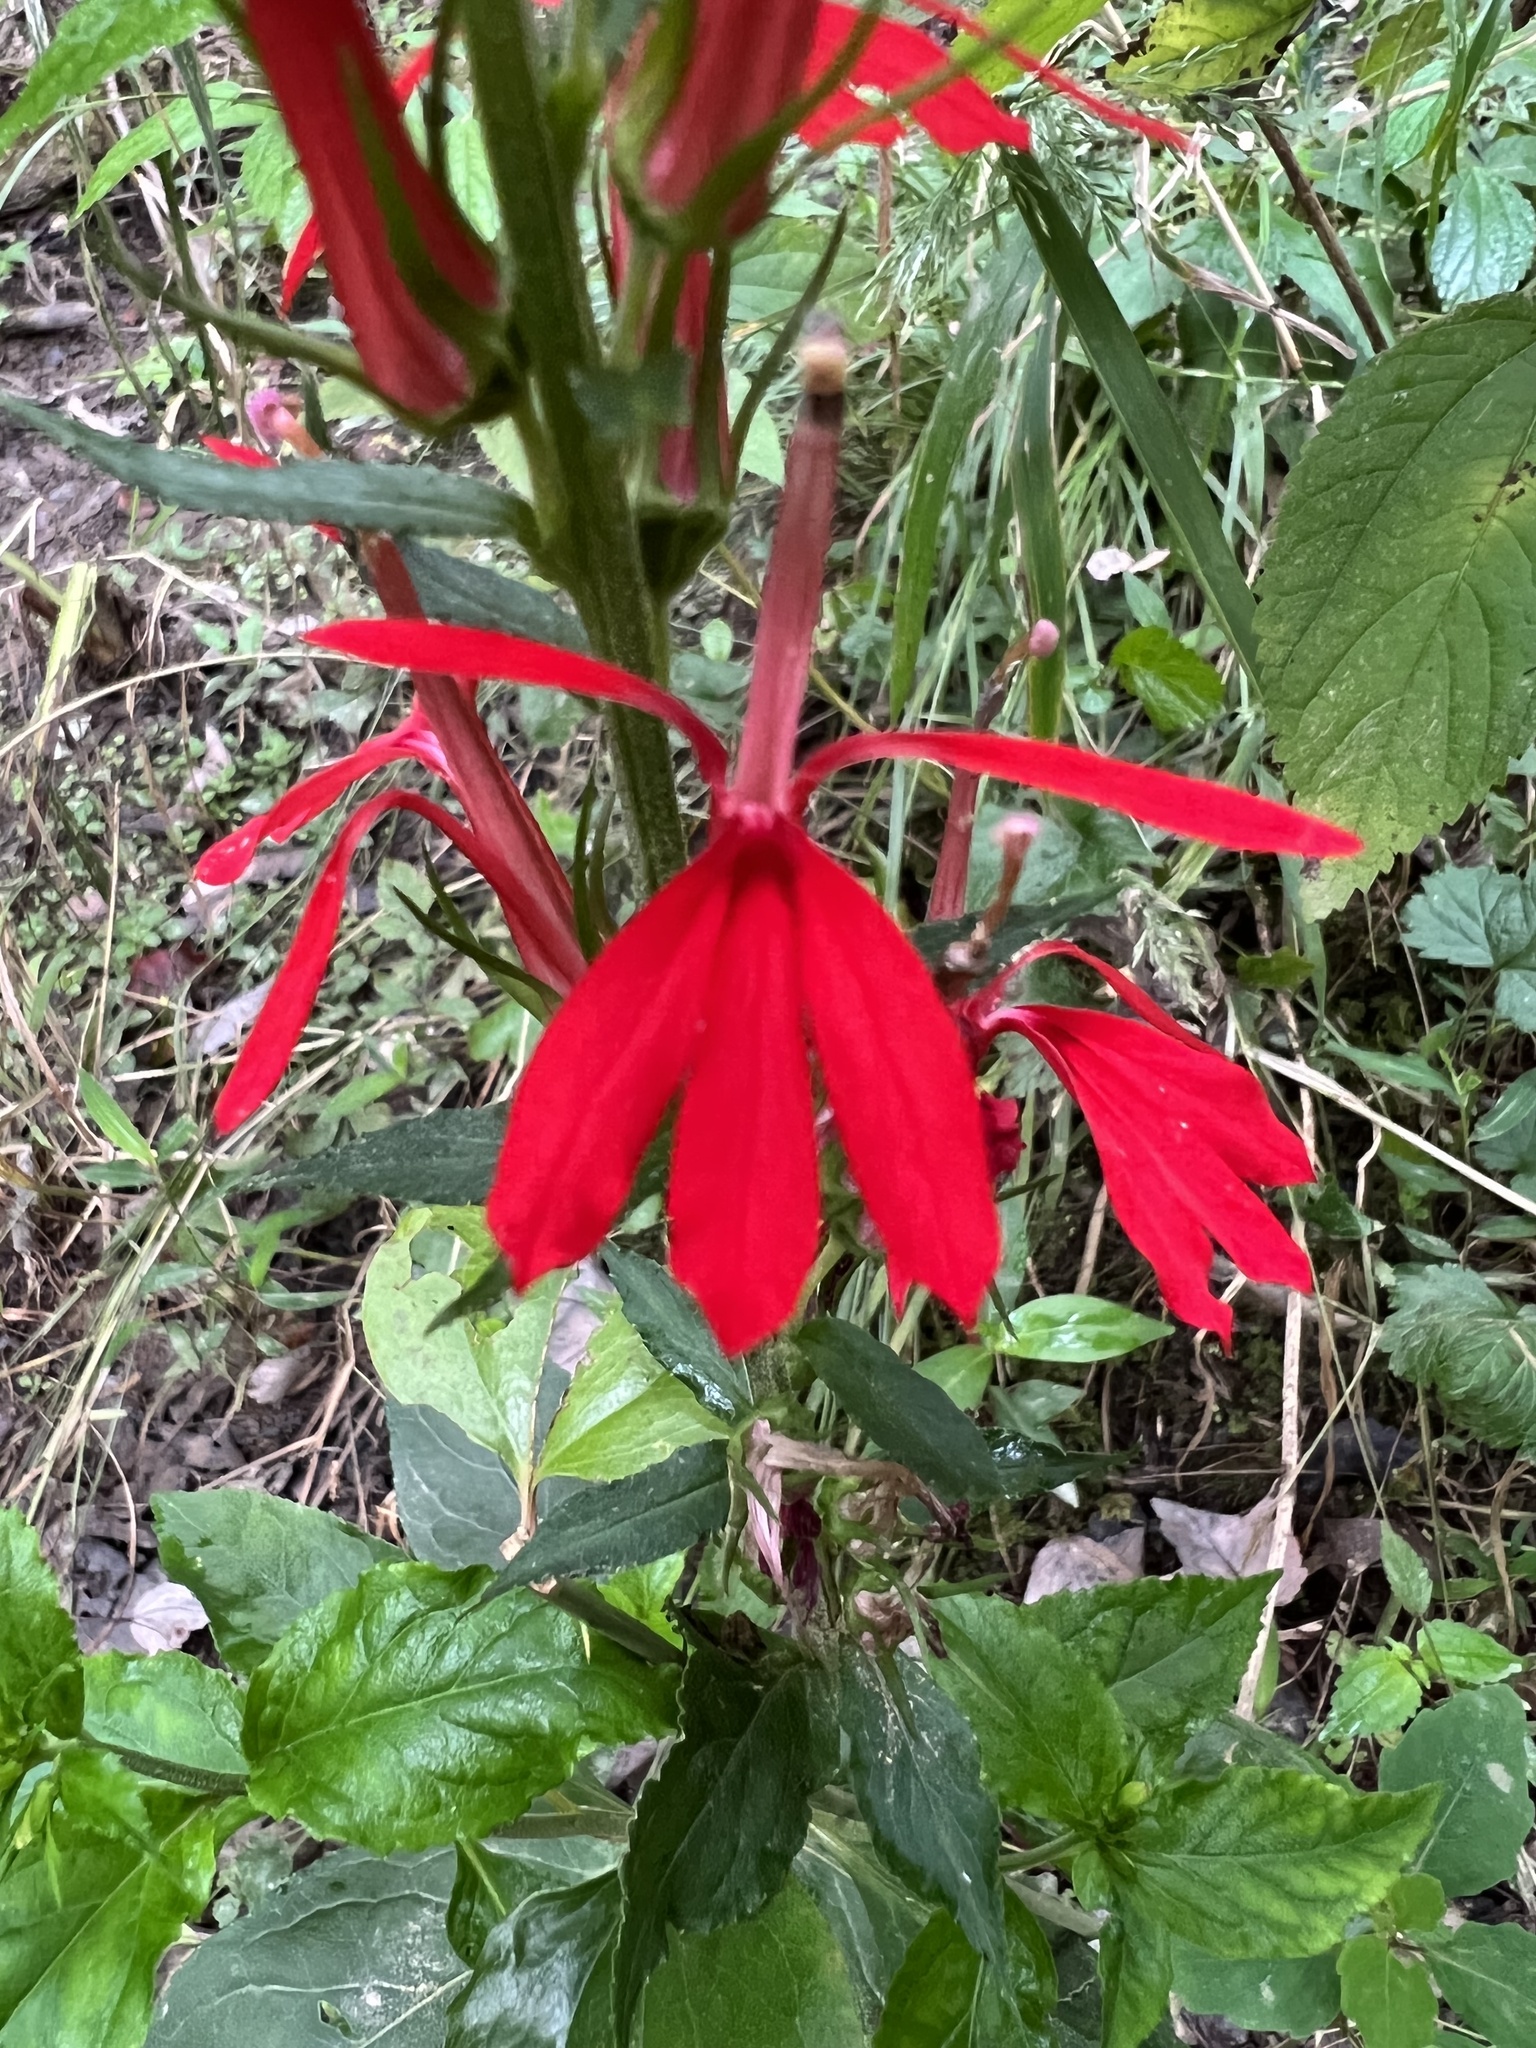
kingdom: Plantae
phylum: Tracheophyta
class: Magnoliopsida
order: Asterales
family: Campanulaceae
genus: Lobelia
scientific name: Lobelia cardinalis
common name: Cardinal flower
